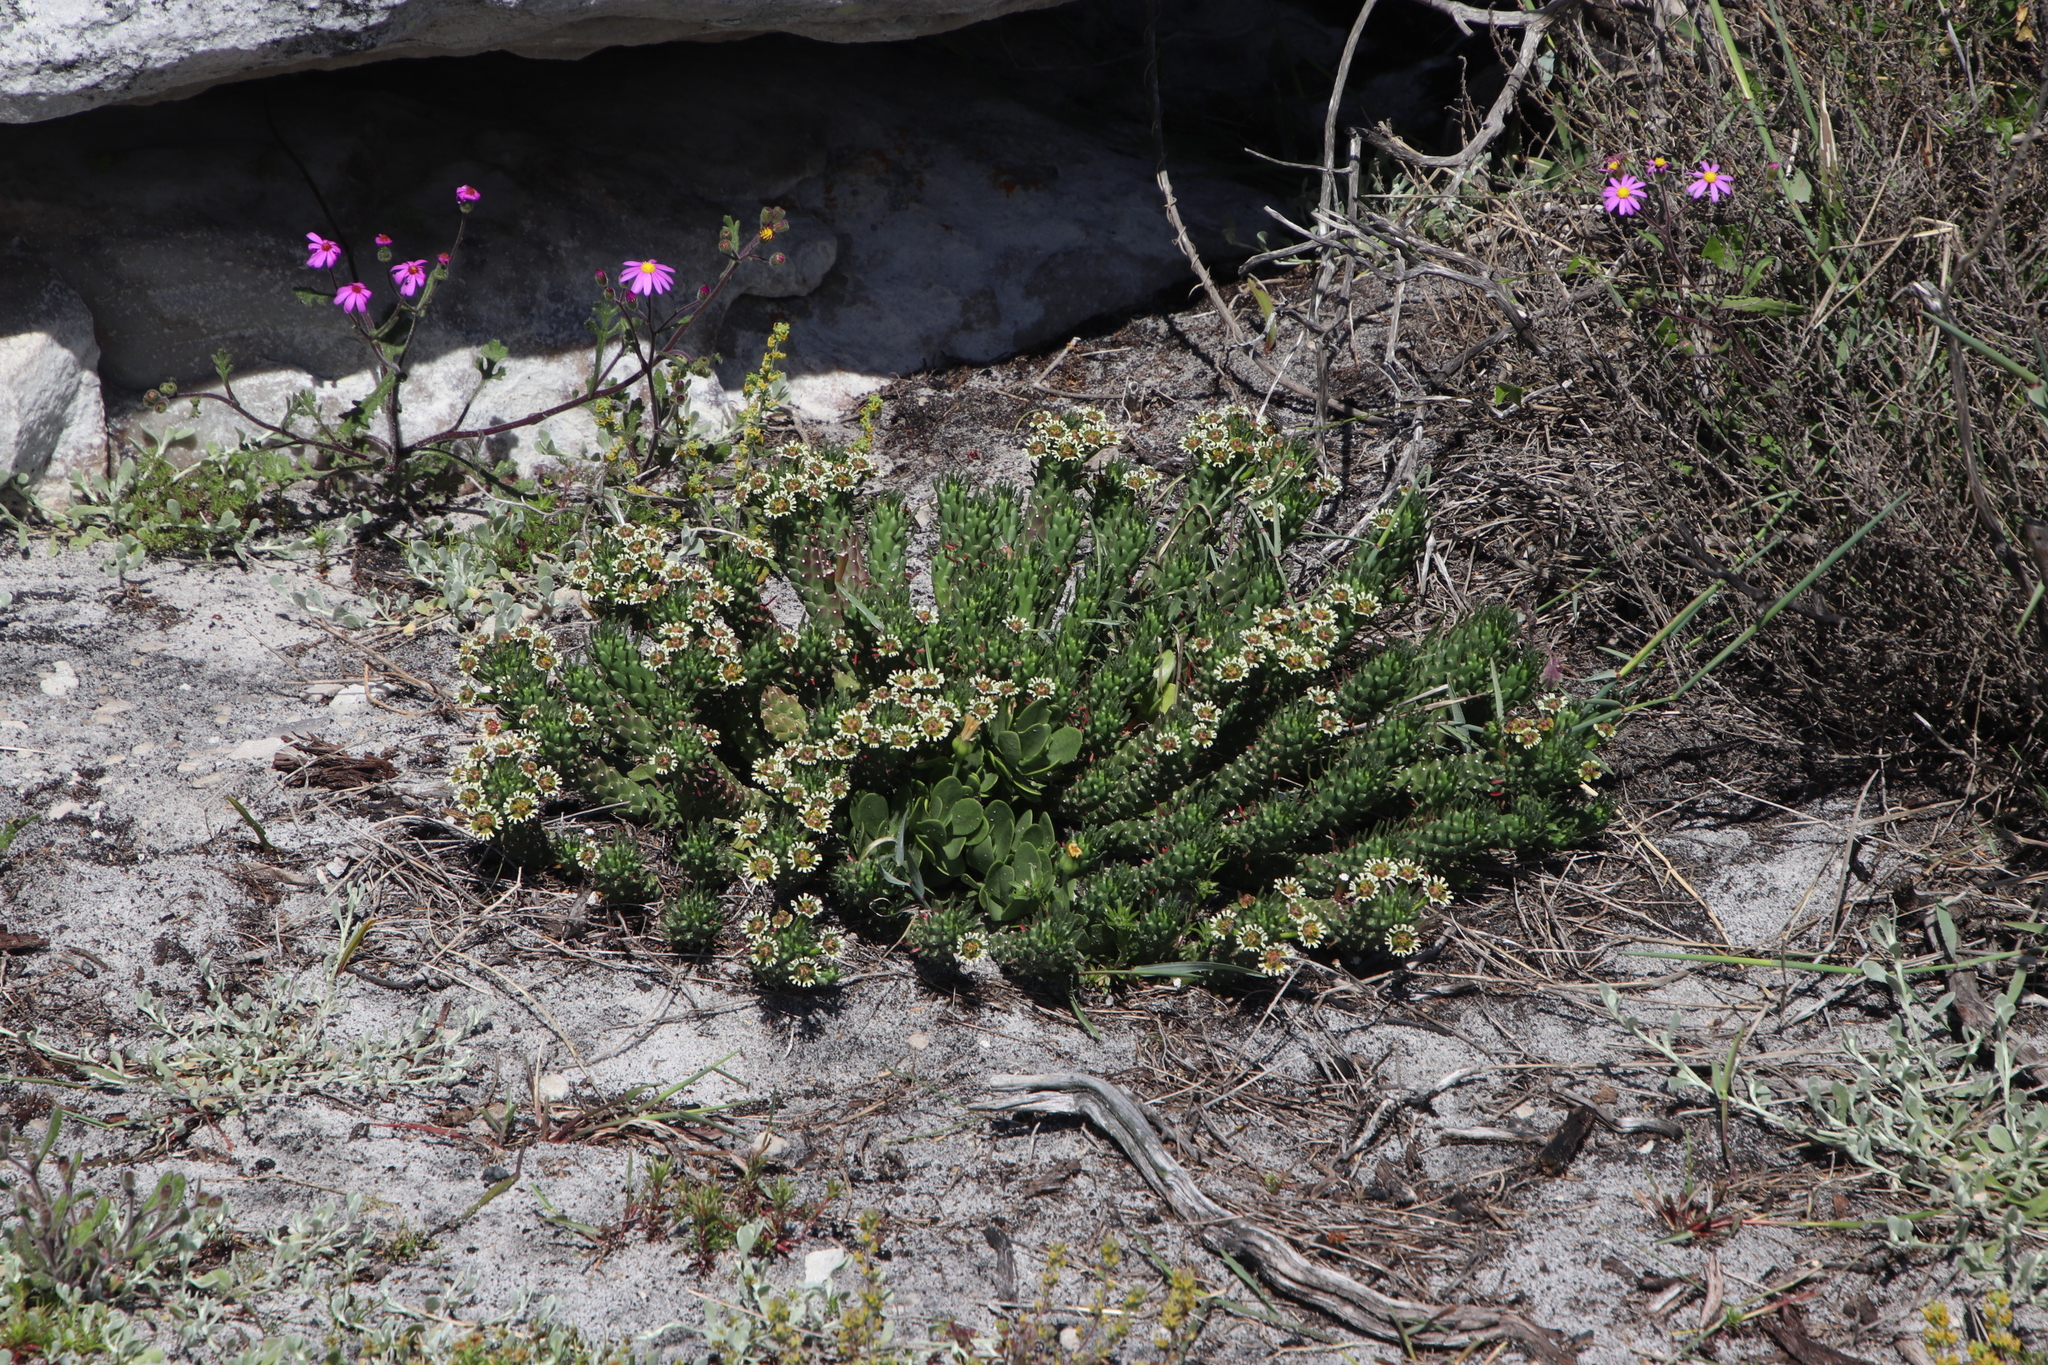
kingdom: Plantae
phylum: Tracheophyta
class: Magnoliopsida
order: Malpighiales
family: Euphorbiaceae
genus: Euphorbia
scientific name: Euphorbia caput-medusae
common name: Medusa's-head
